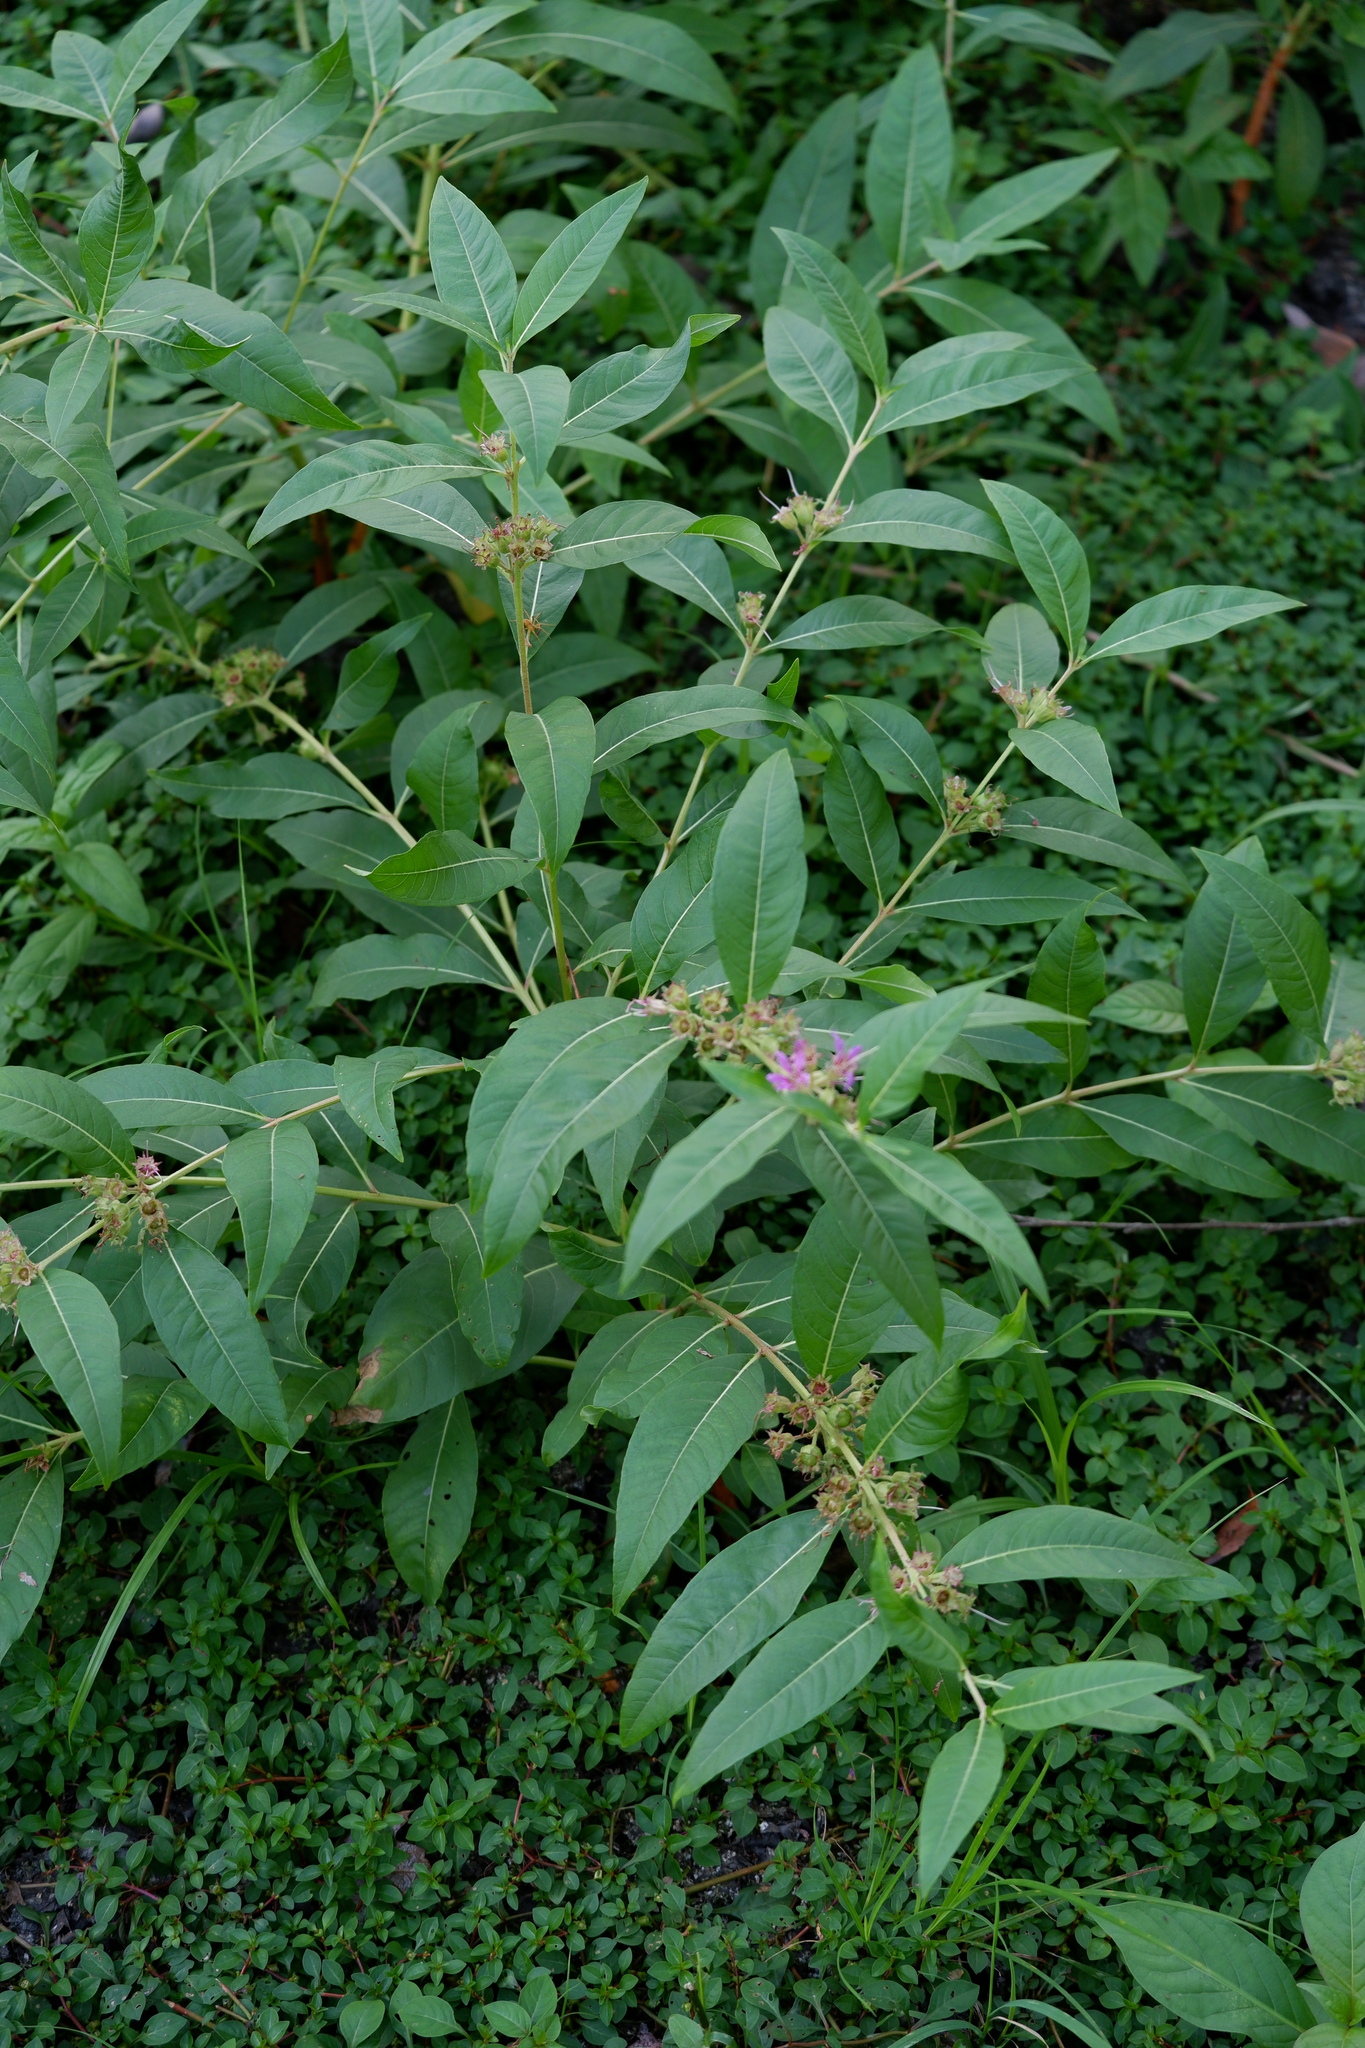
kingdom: Plantae
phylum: Tracheophyta
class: Magnoliopsida
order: Myrtales
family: Lythraceae
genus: Decodon
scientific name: Decodon verticillatus
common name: Hairy swamp loosestrife
